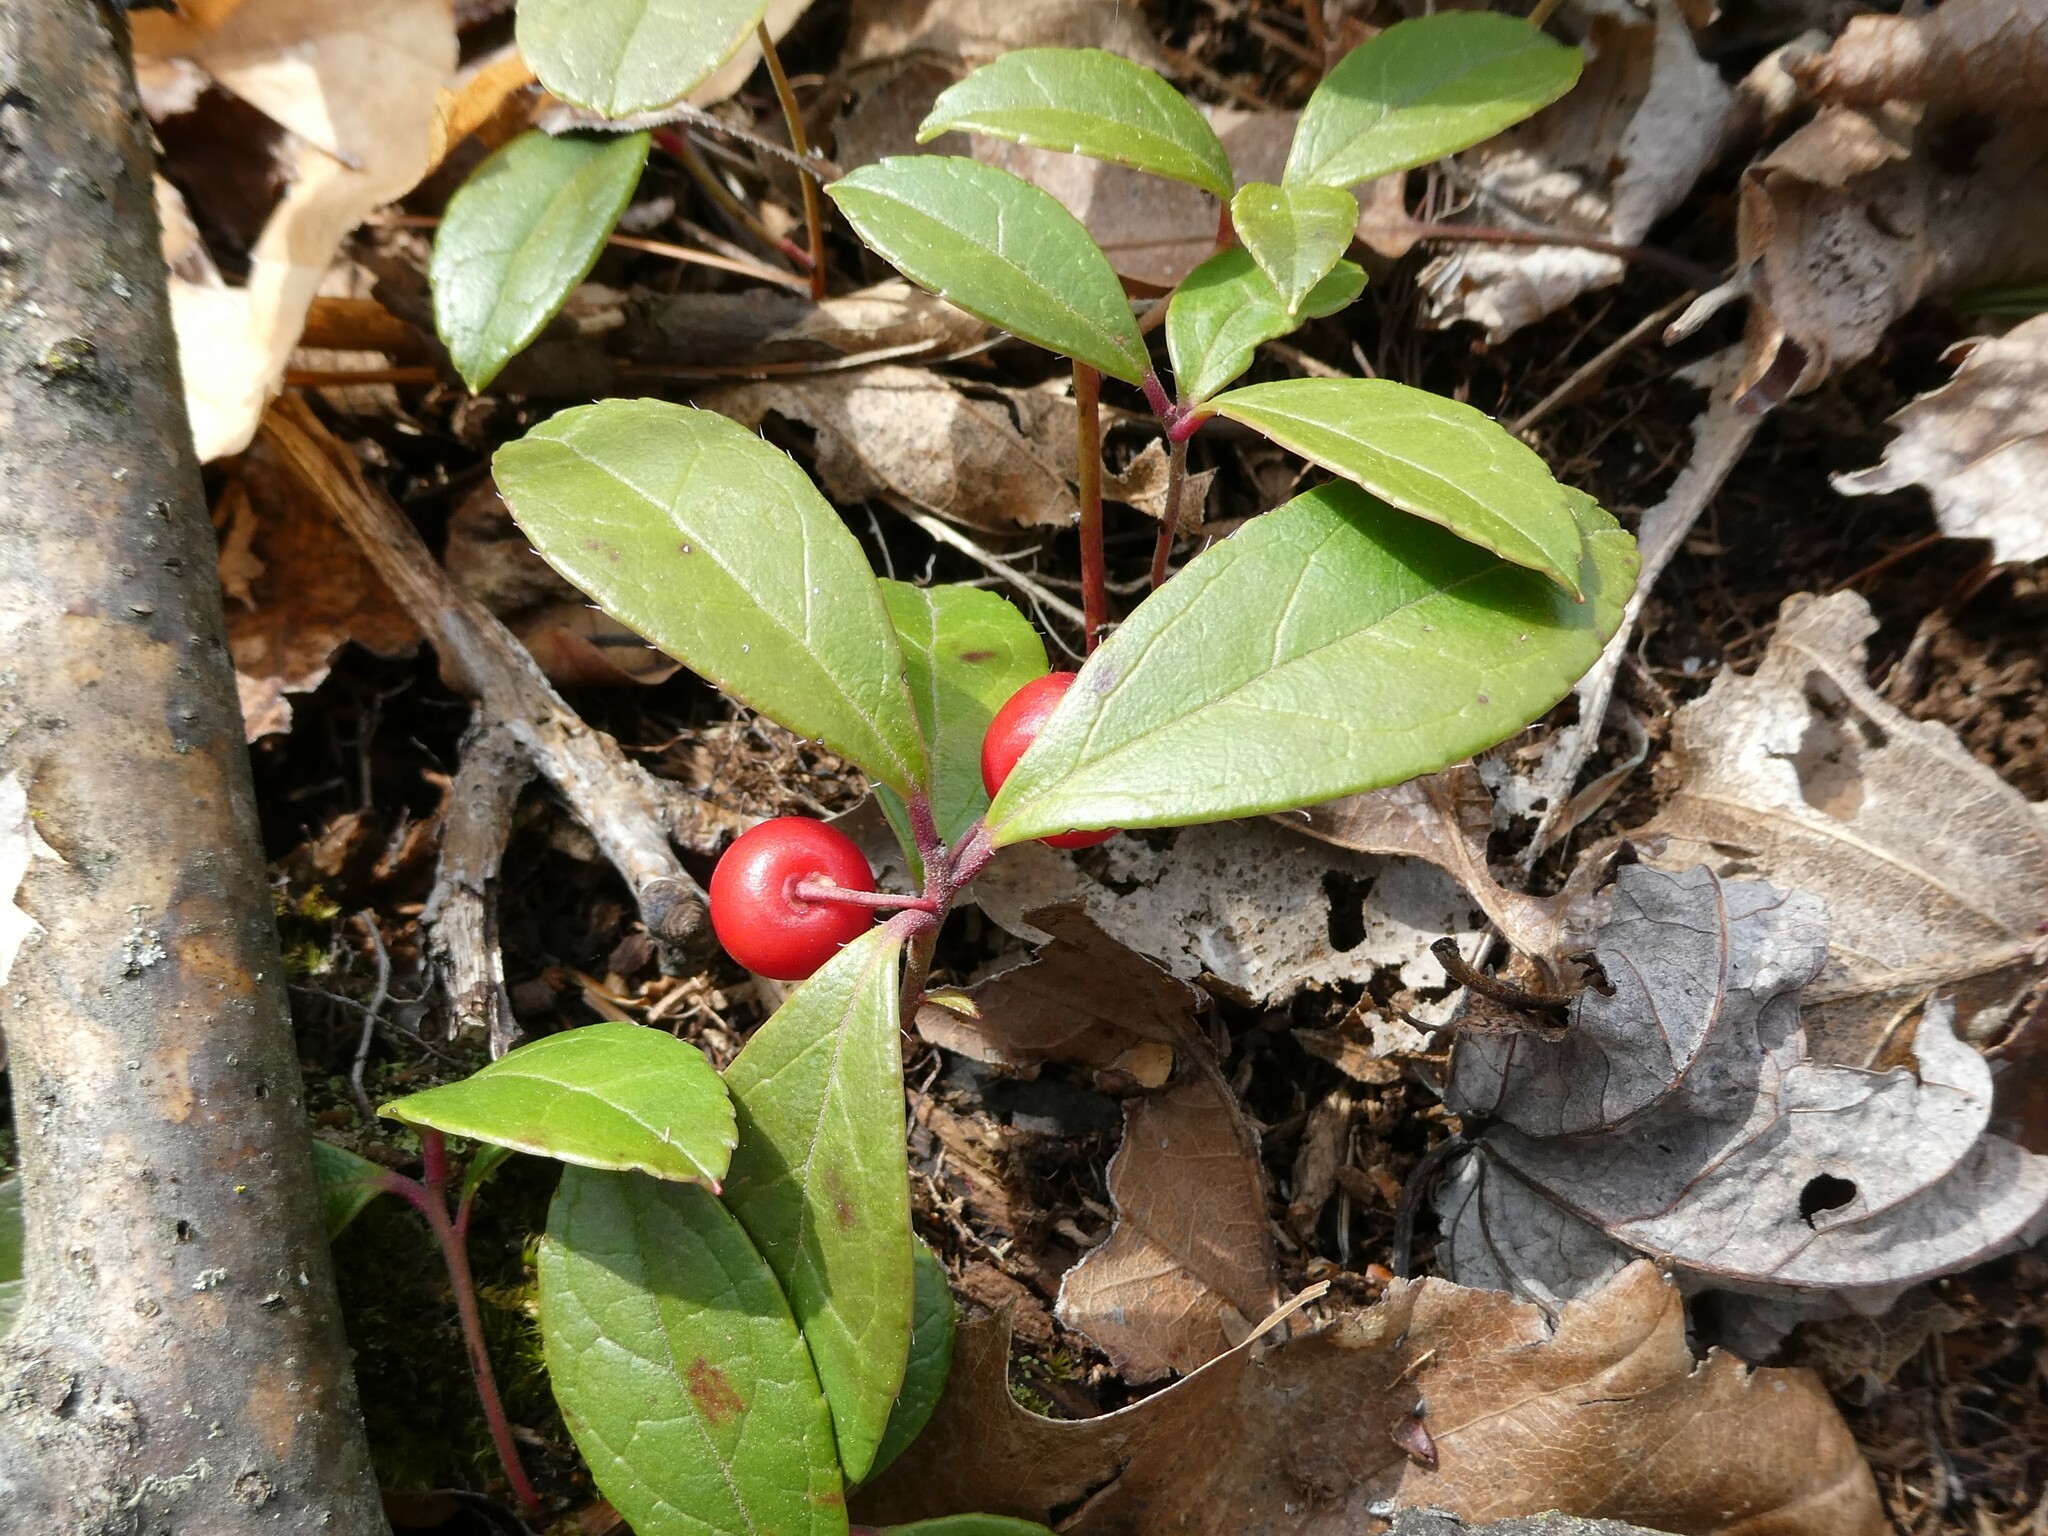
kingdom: Plantae
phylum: Tracheophyta
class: Magnoliopsida
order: Ericales
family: Ericaceae
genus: Gaultheria
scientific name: Gaultheria procumbens
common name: Checkerberry
